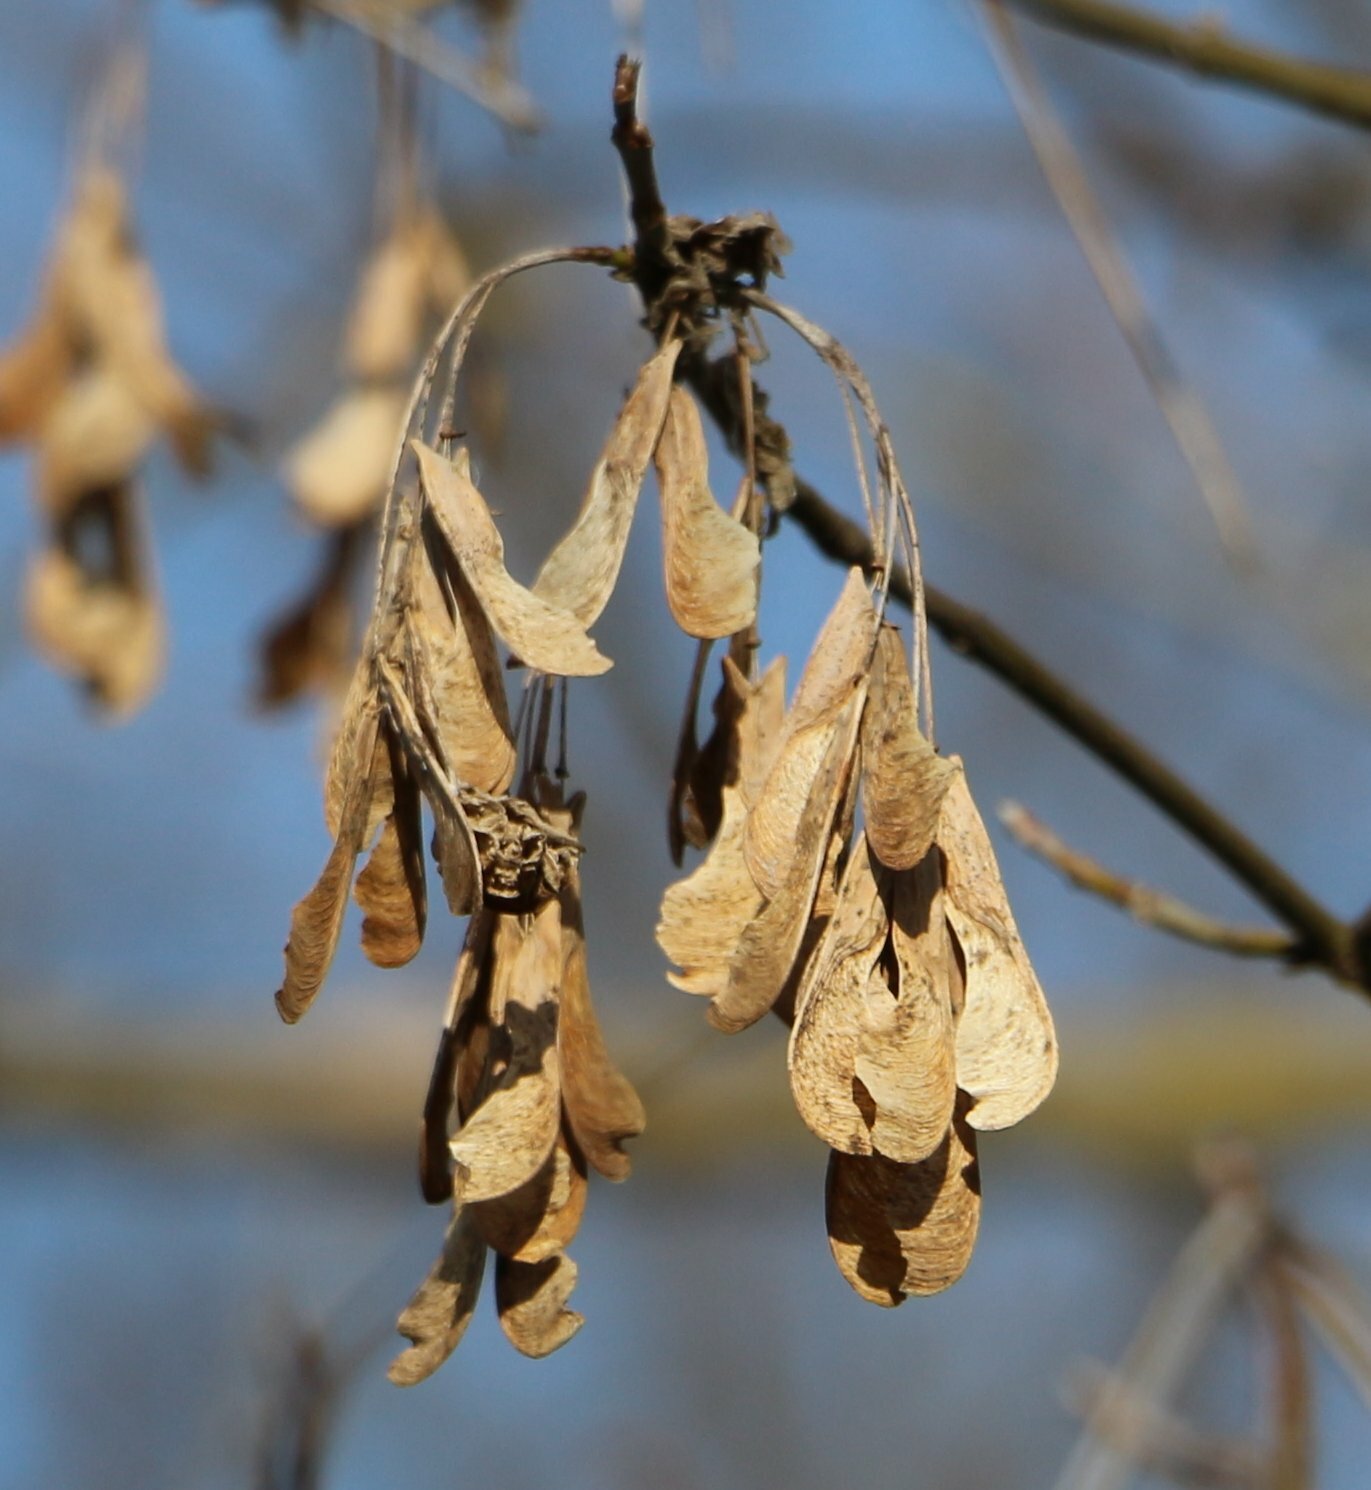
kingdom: Plantae
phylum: Tracheophyta
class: Magnoliopsida
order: Sapindales
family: Sapindaceae
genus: Acer
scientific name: Acer negundo
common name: Ashleaf maple
